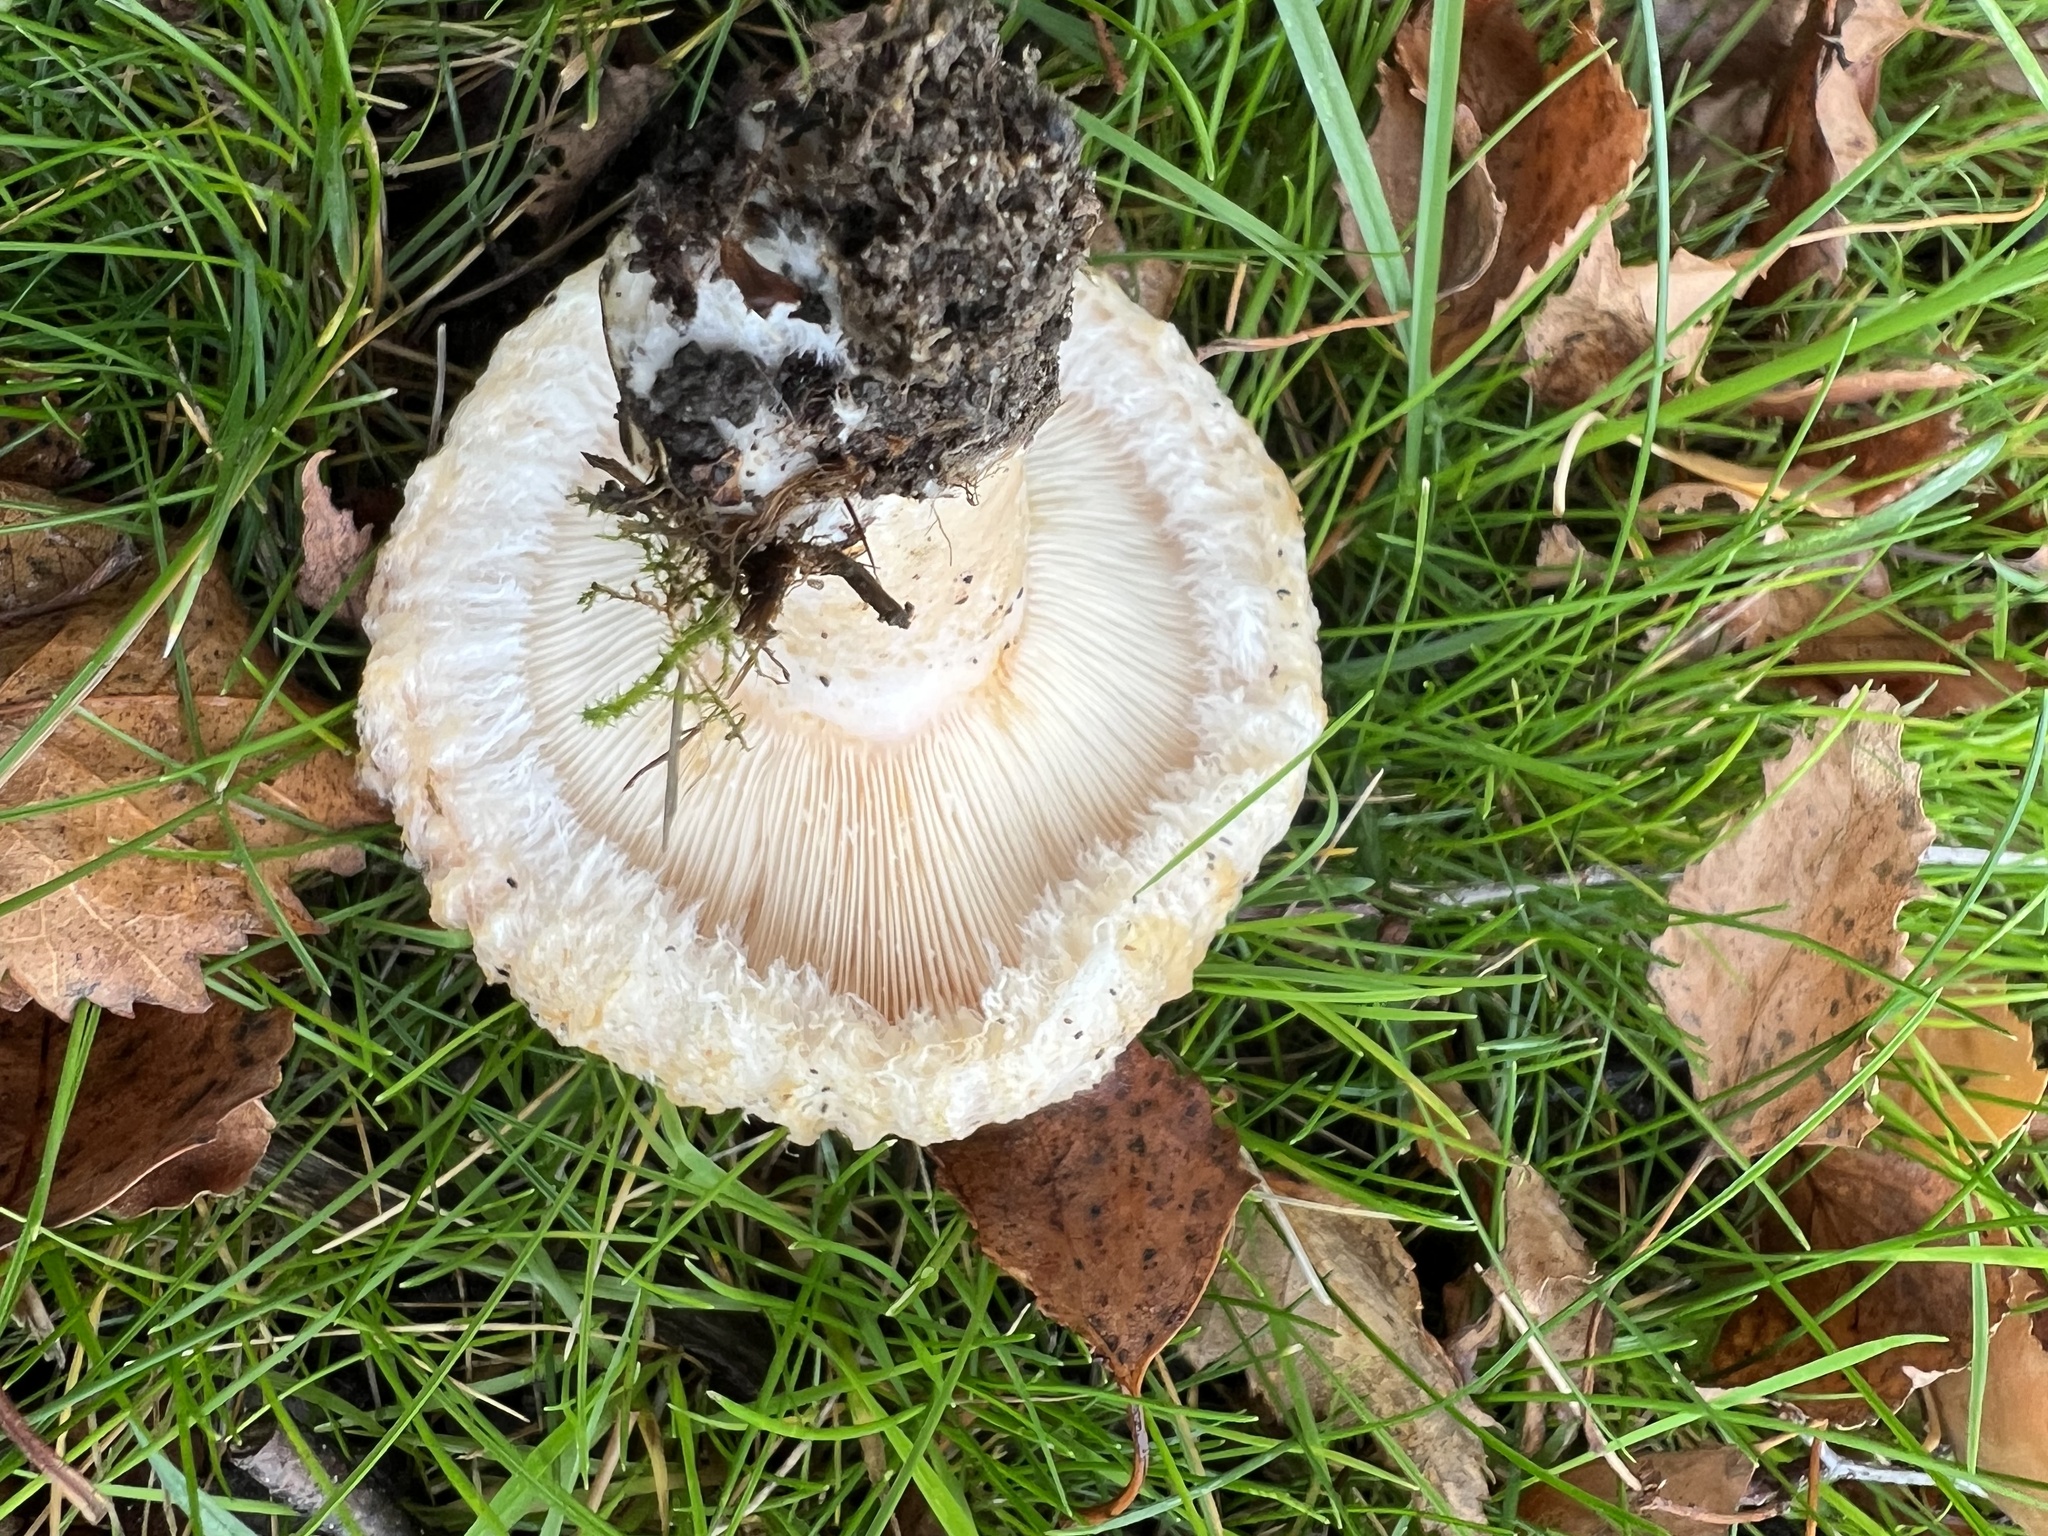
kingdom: Fungi
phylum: Basidiomycota
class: Agaricomycetes
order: Russulales
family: Russulaceae
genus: Lactarius
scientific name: Lactarius pubescens
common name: Bearded milkcap
